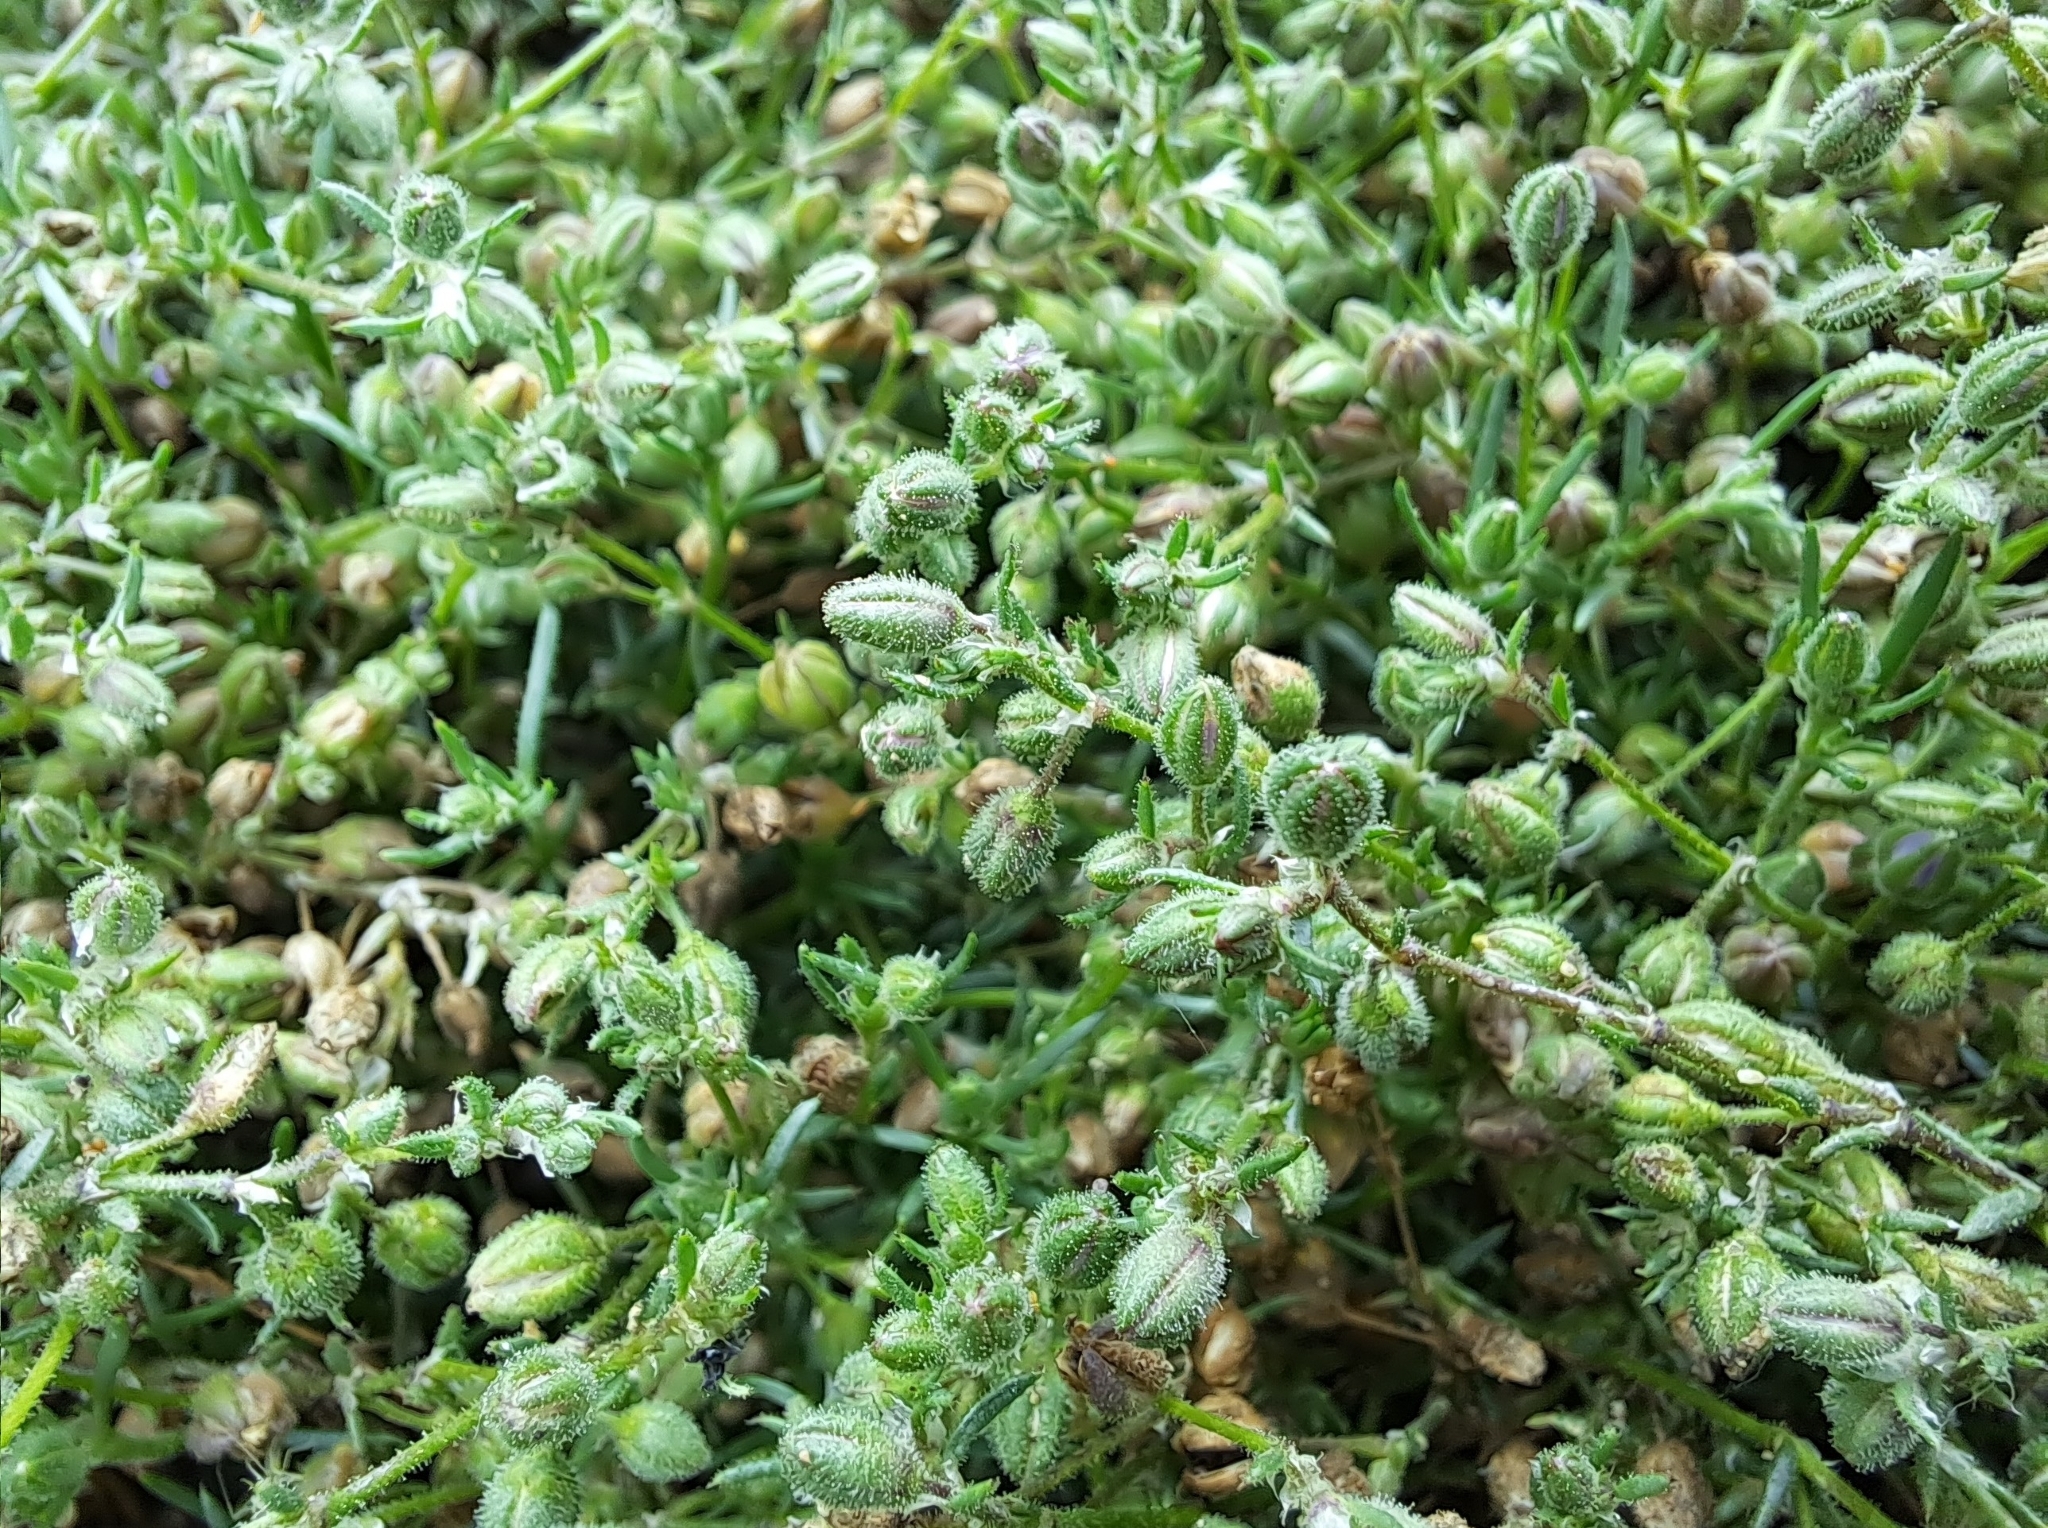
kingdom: Plantae
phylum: Tracheophyta
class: Magnoliopsida
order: Caryophyllales
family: Caryophyllaceae
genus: Spergularia
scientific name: Spergularia rubra
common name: Red sand-spurrey
